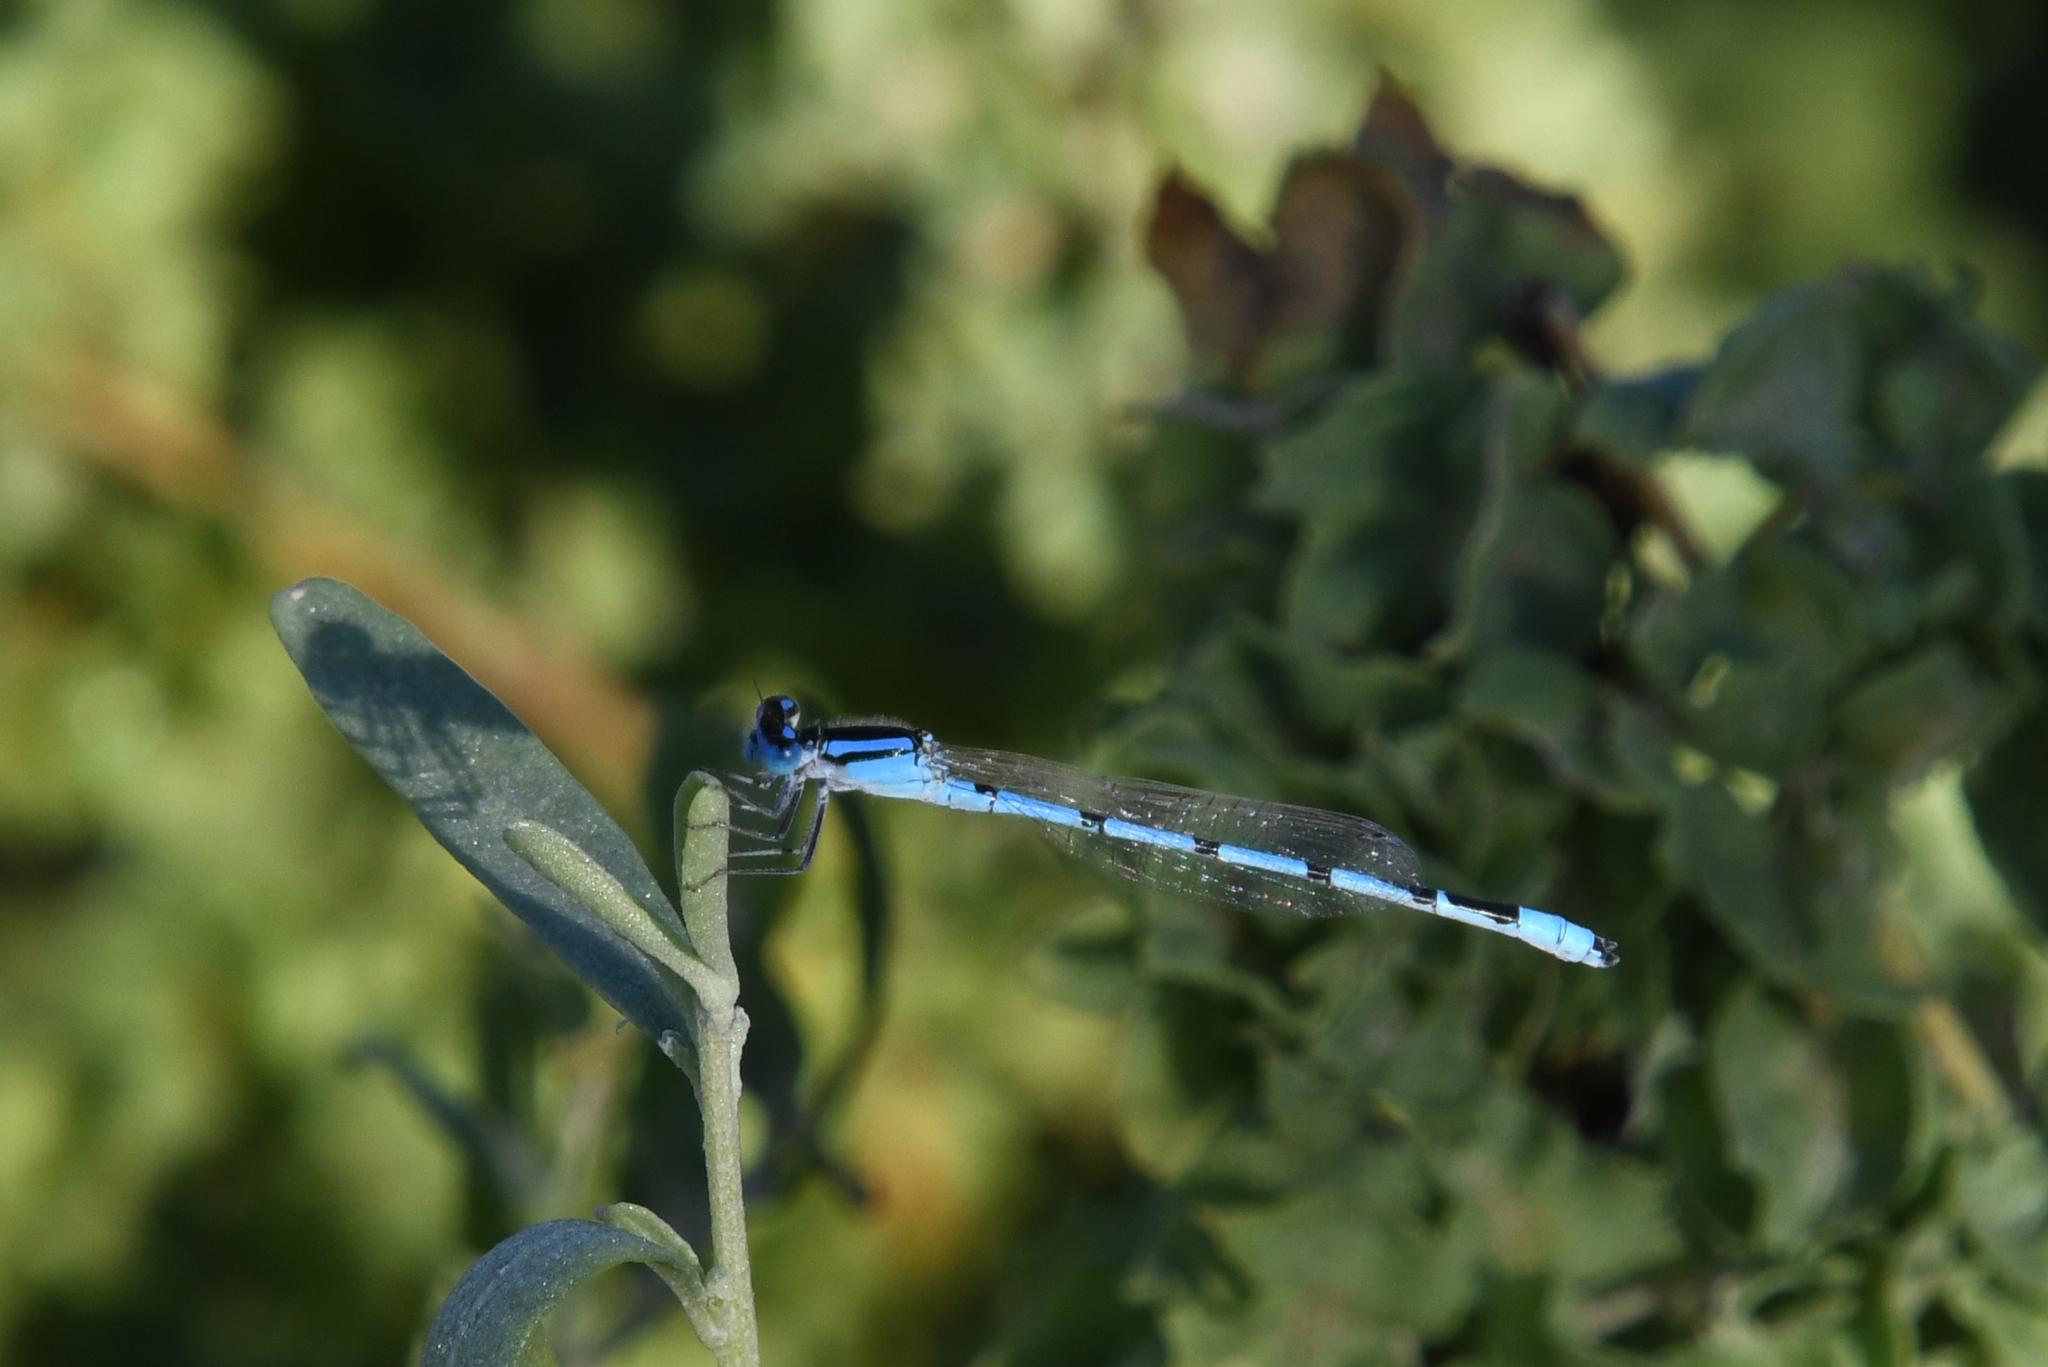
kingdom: Animalia
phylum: Arthropoda
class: Insecta
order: Odonata
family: Coenagrionidae
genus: Enallagma
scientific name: Enallagma civile
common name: Damselfly
